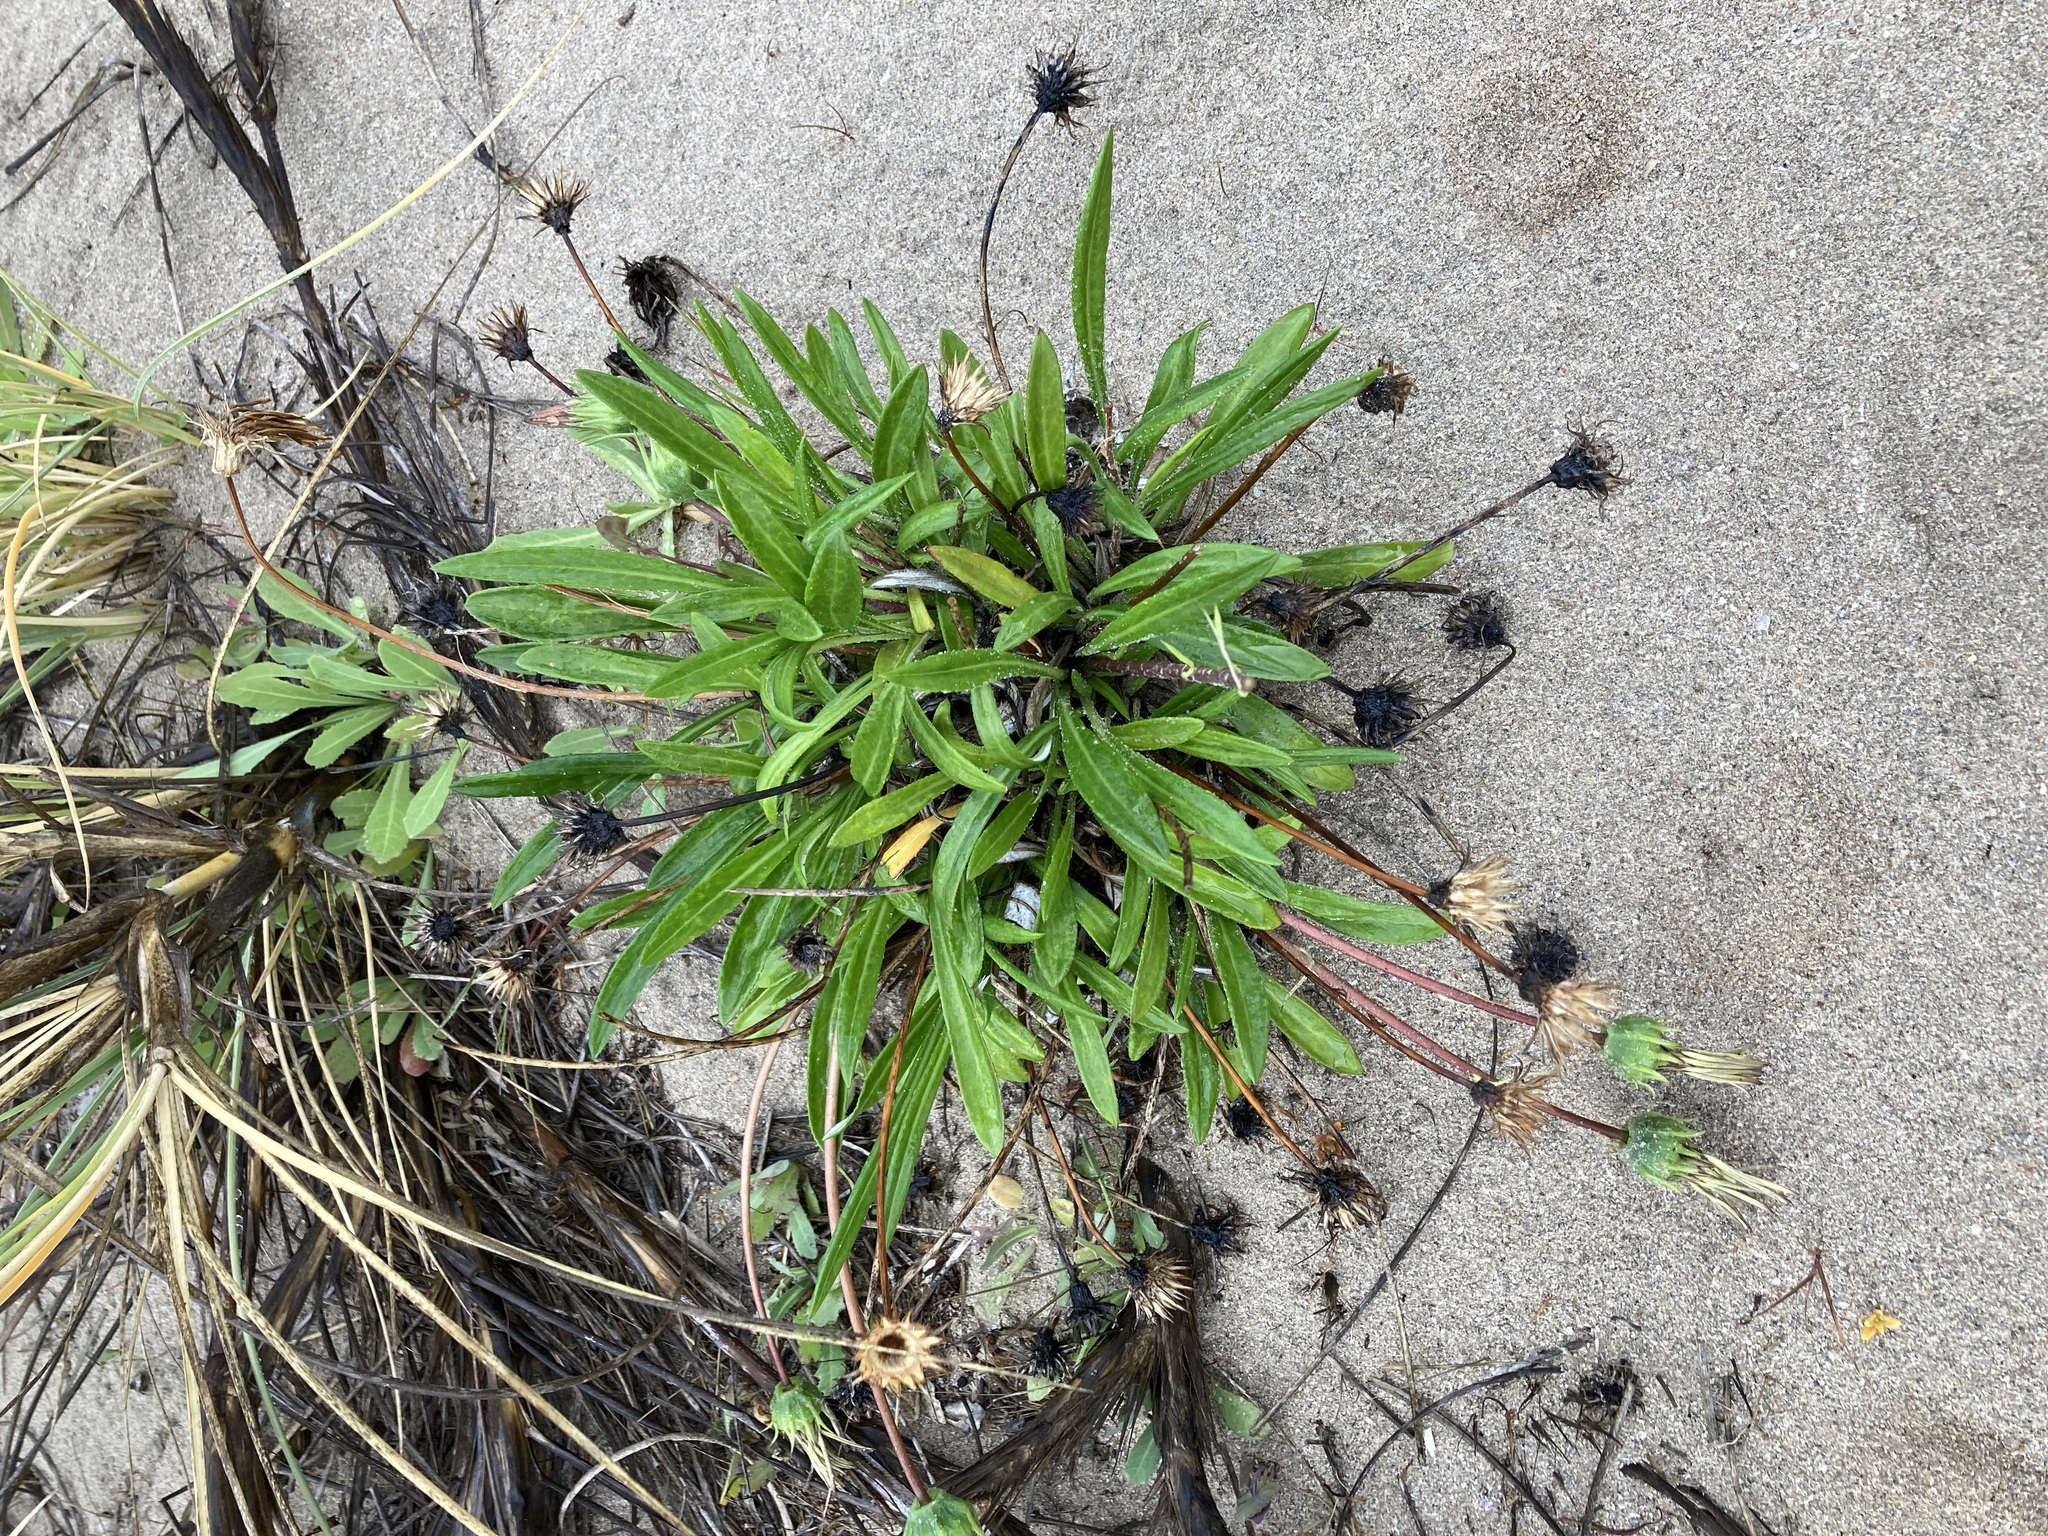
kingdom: Plantae
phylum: Tracheophyta
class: Magnoliopsida
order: Asterales
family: Asteraceae
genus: Gazania
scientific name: Gazania splendens
